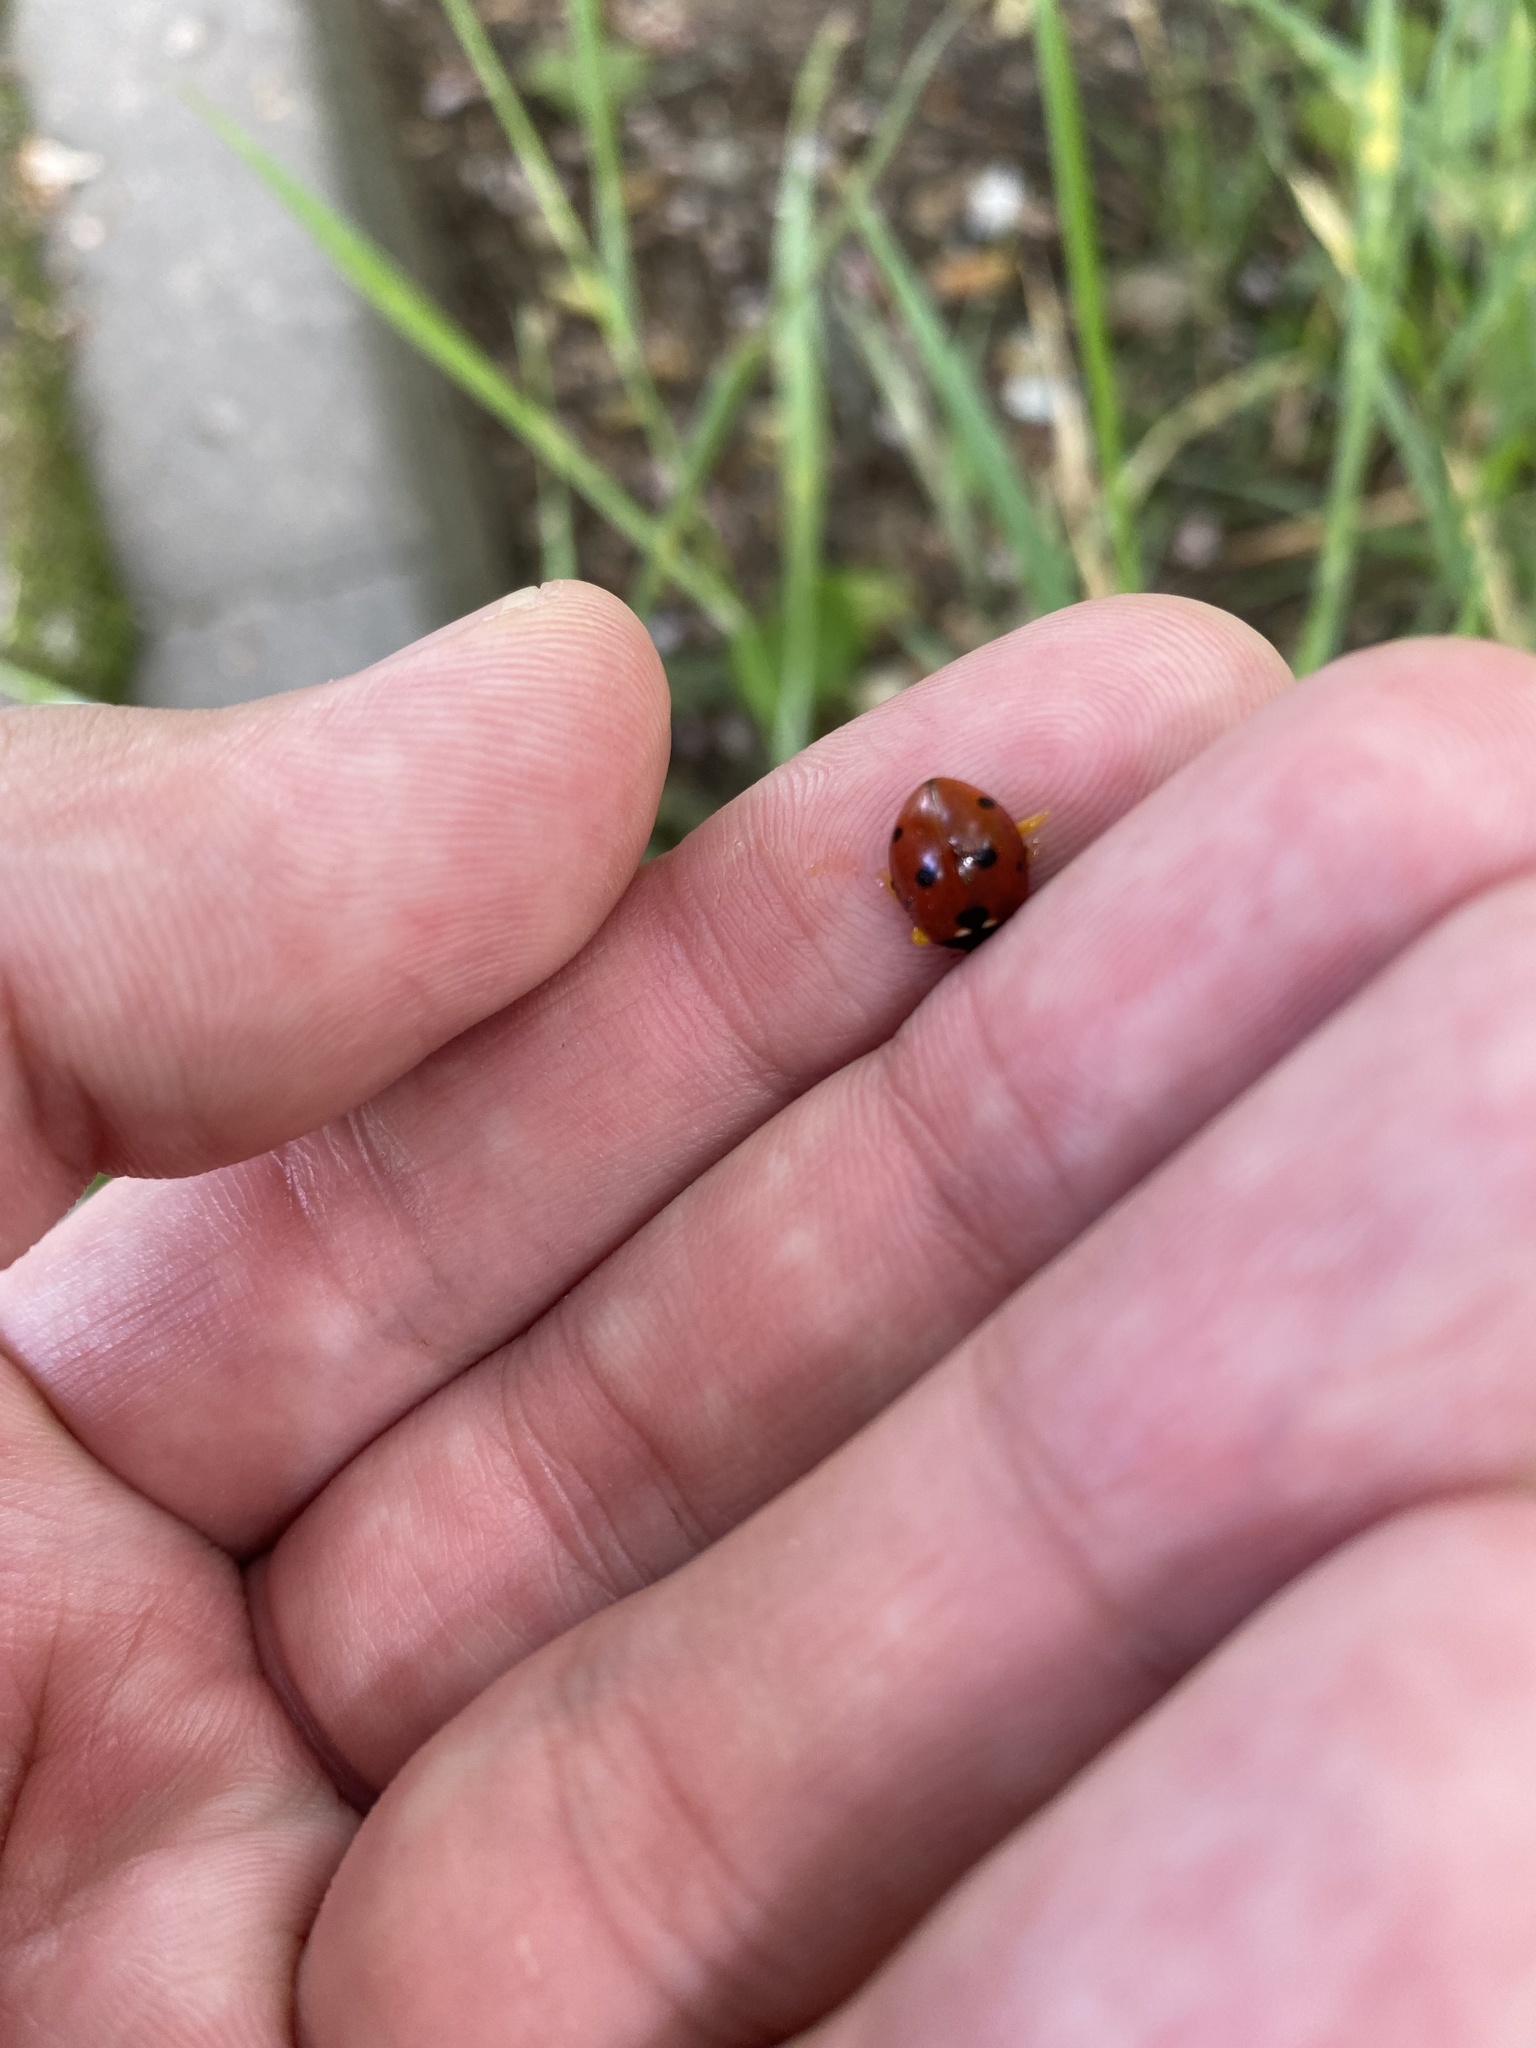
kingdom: Animalia
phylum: Arthropoda
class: Insecta
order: Coleoptera
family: Coccinellidae
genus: Coccinella
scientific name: Coccinella septempunctata
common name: Sevenspotted lady beetle
